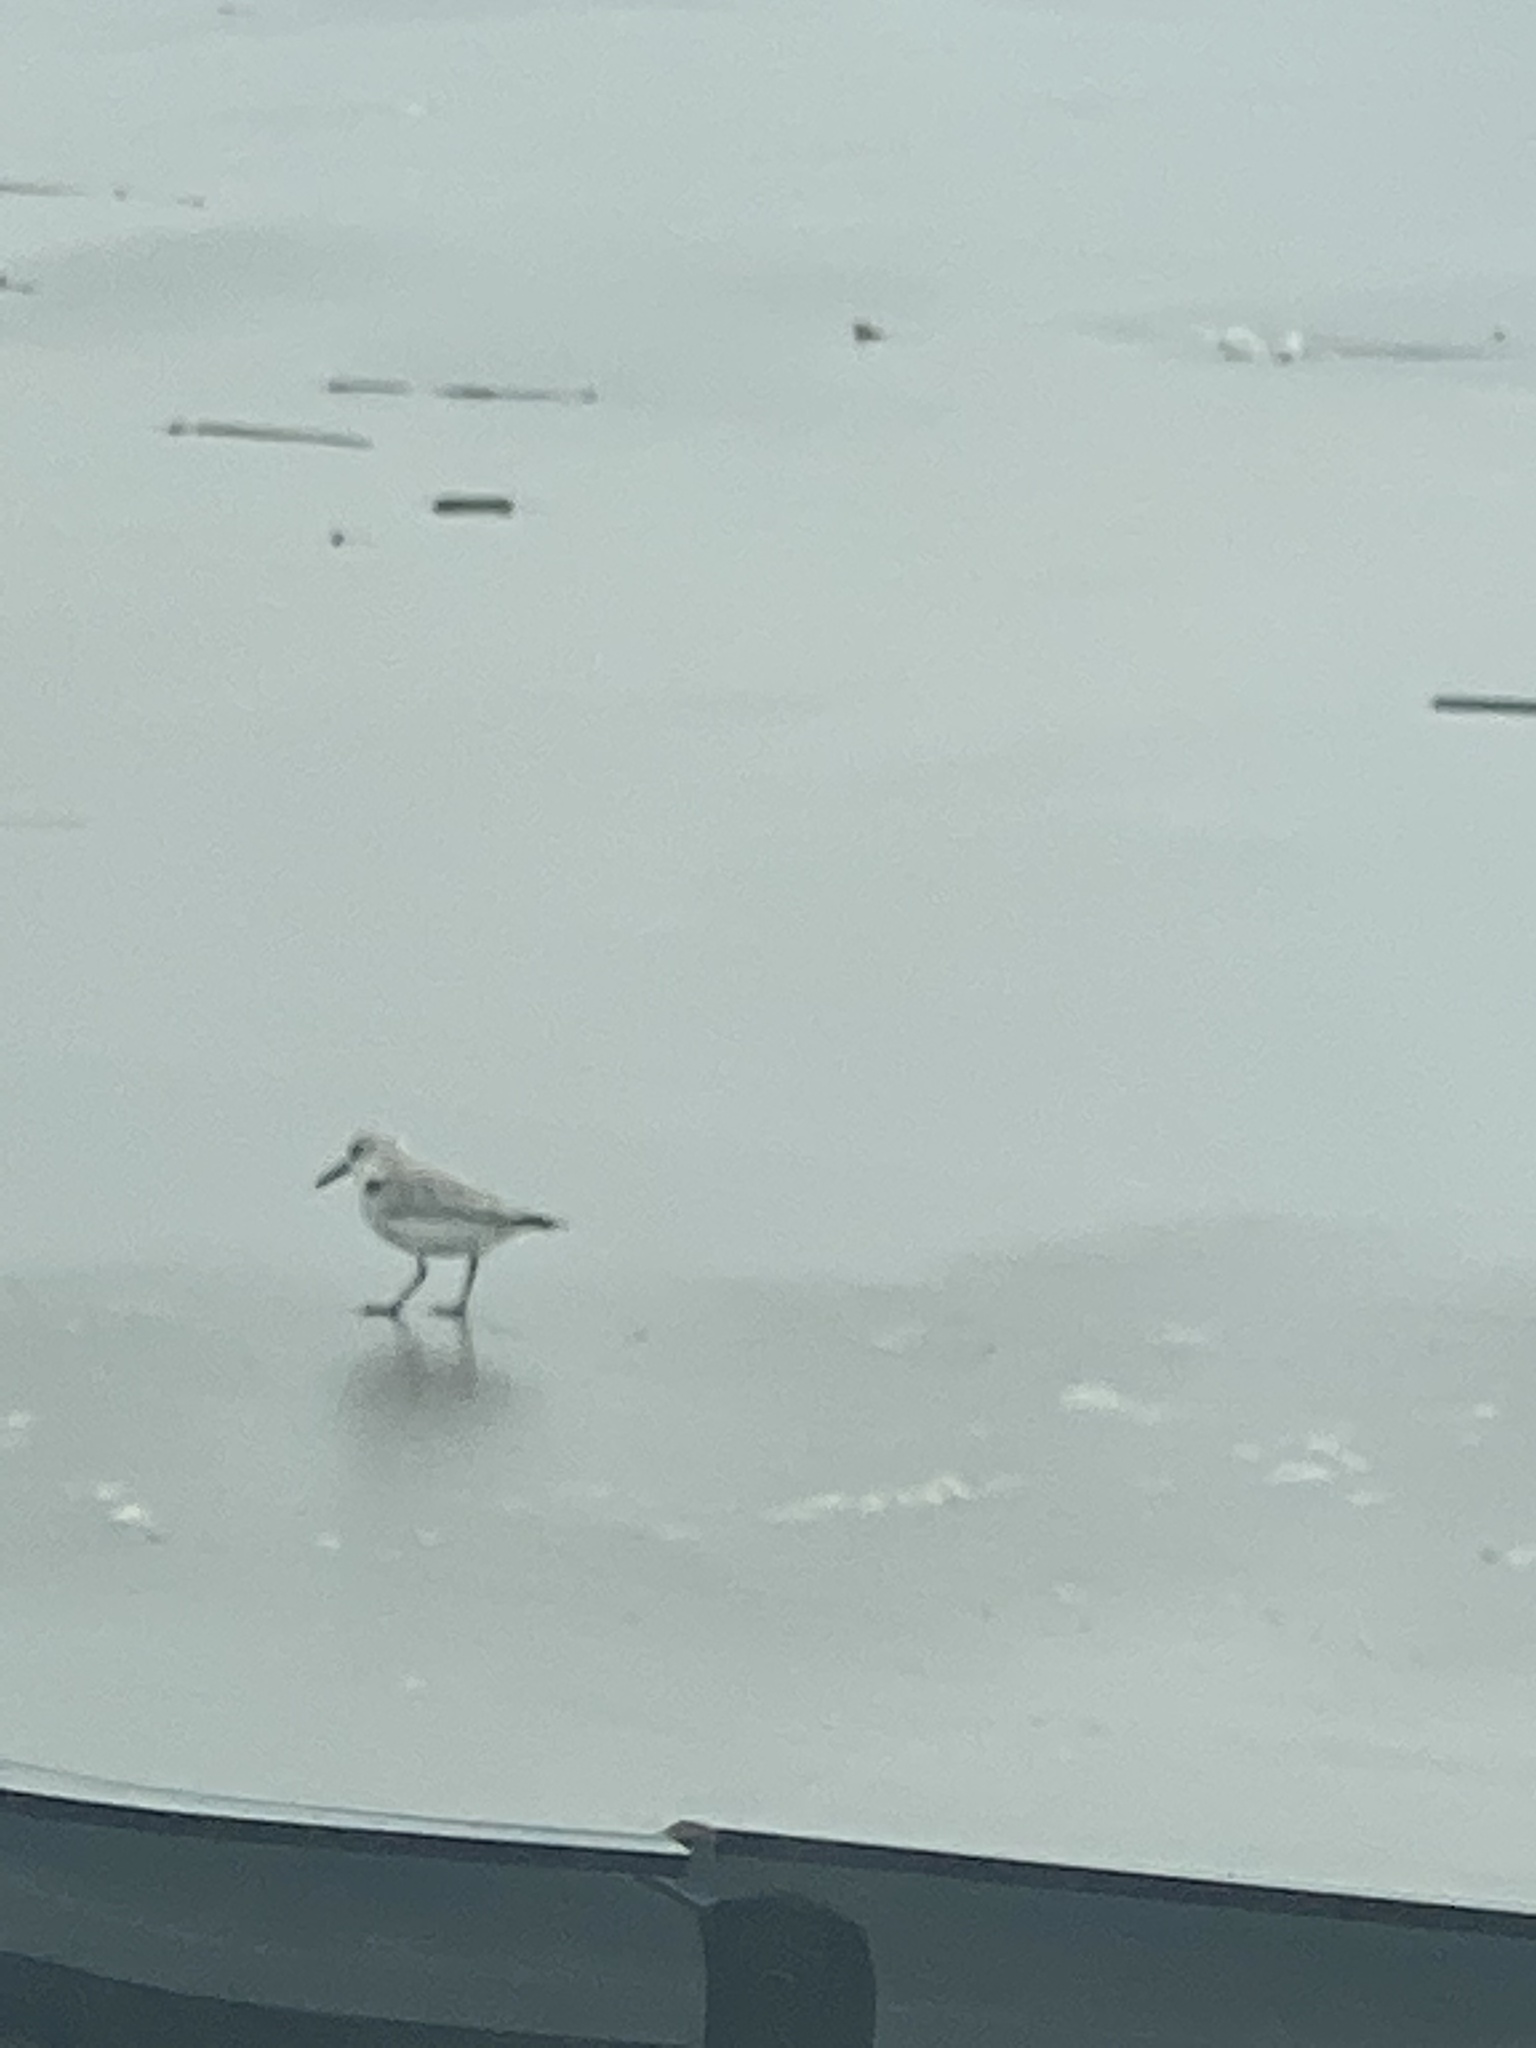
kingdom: Animalia
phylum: Chordata
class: Aves
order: Charadriiformes
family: Scolopacidae
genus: Calidris
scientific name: Calidris alba
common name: Sanderling
